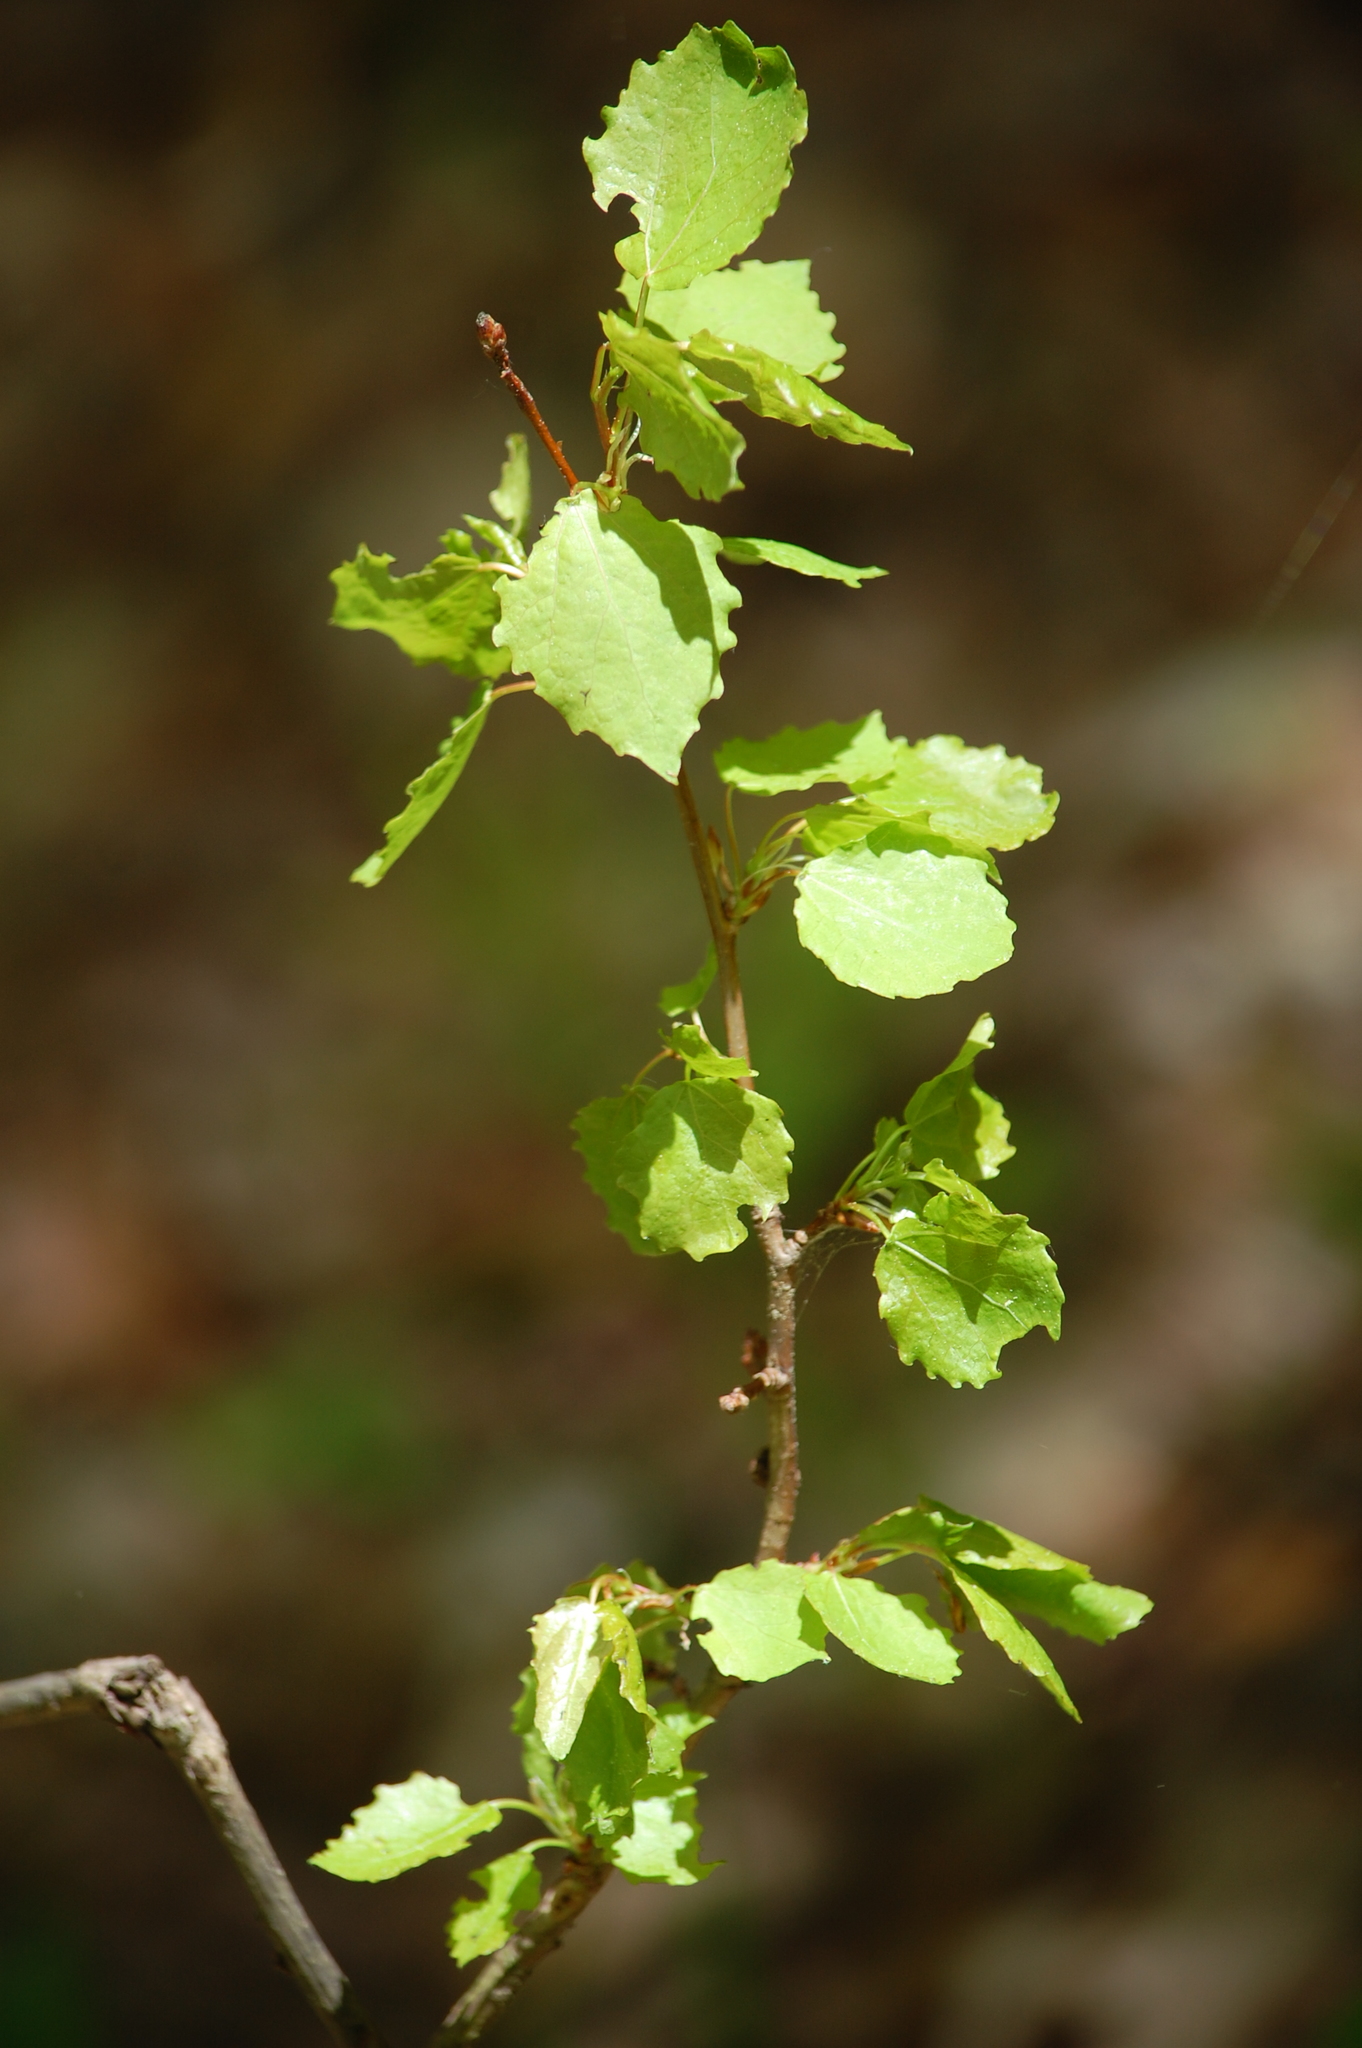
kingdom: Plantae
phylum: Tracheophyta
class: Magnoliopsida
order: Malpighiales
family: Salicaceae
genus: Populus
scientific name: Populus tremula
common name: European aspen
